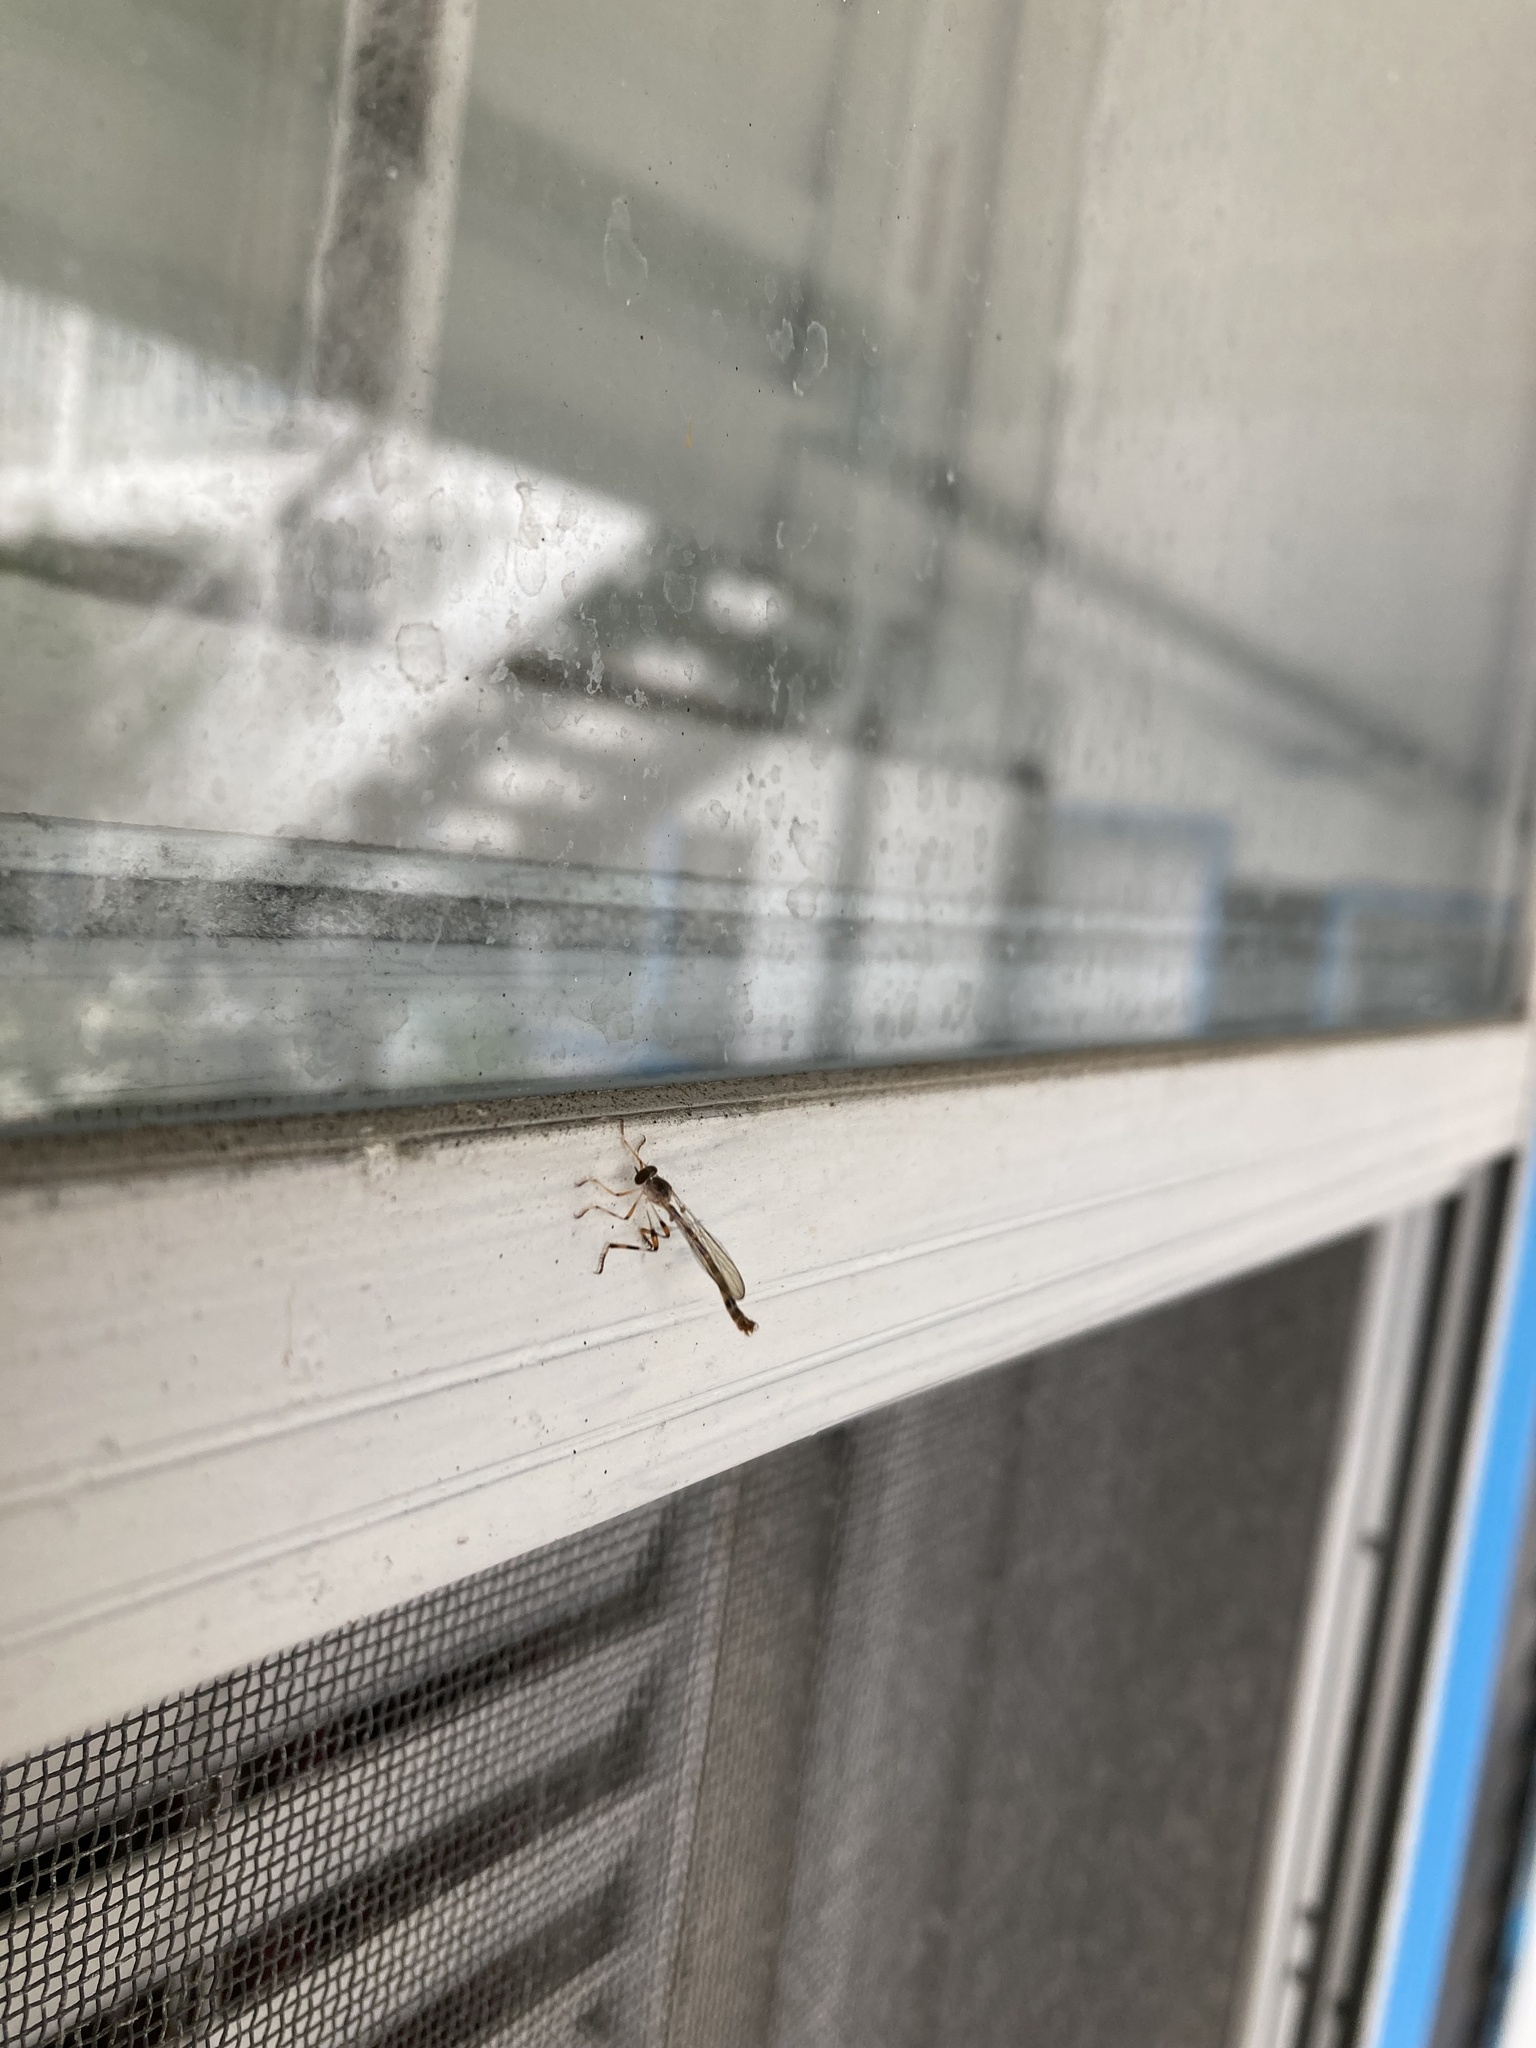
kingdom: Animalia
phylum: Arthropoda
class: Insecta
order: Diptera
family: Asilidae
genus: Psilonyx
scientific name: Psilonyx annulatus
